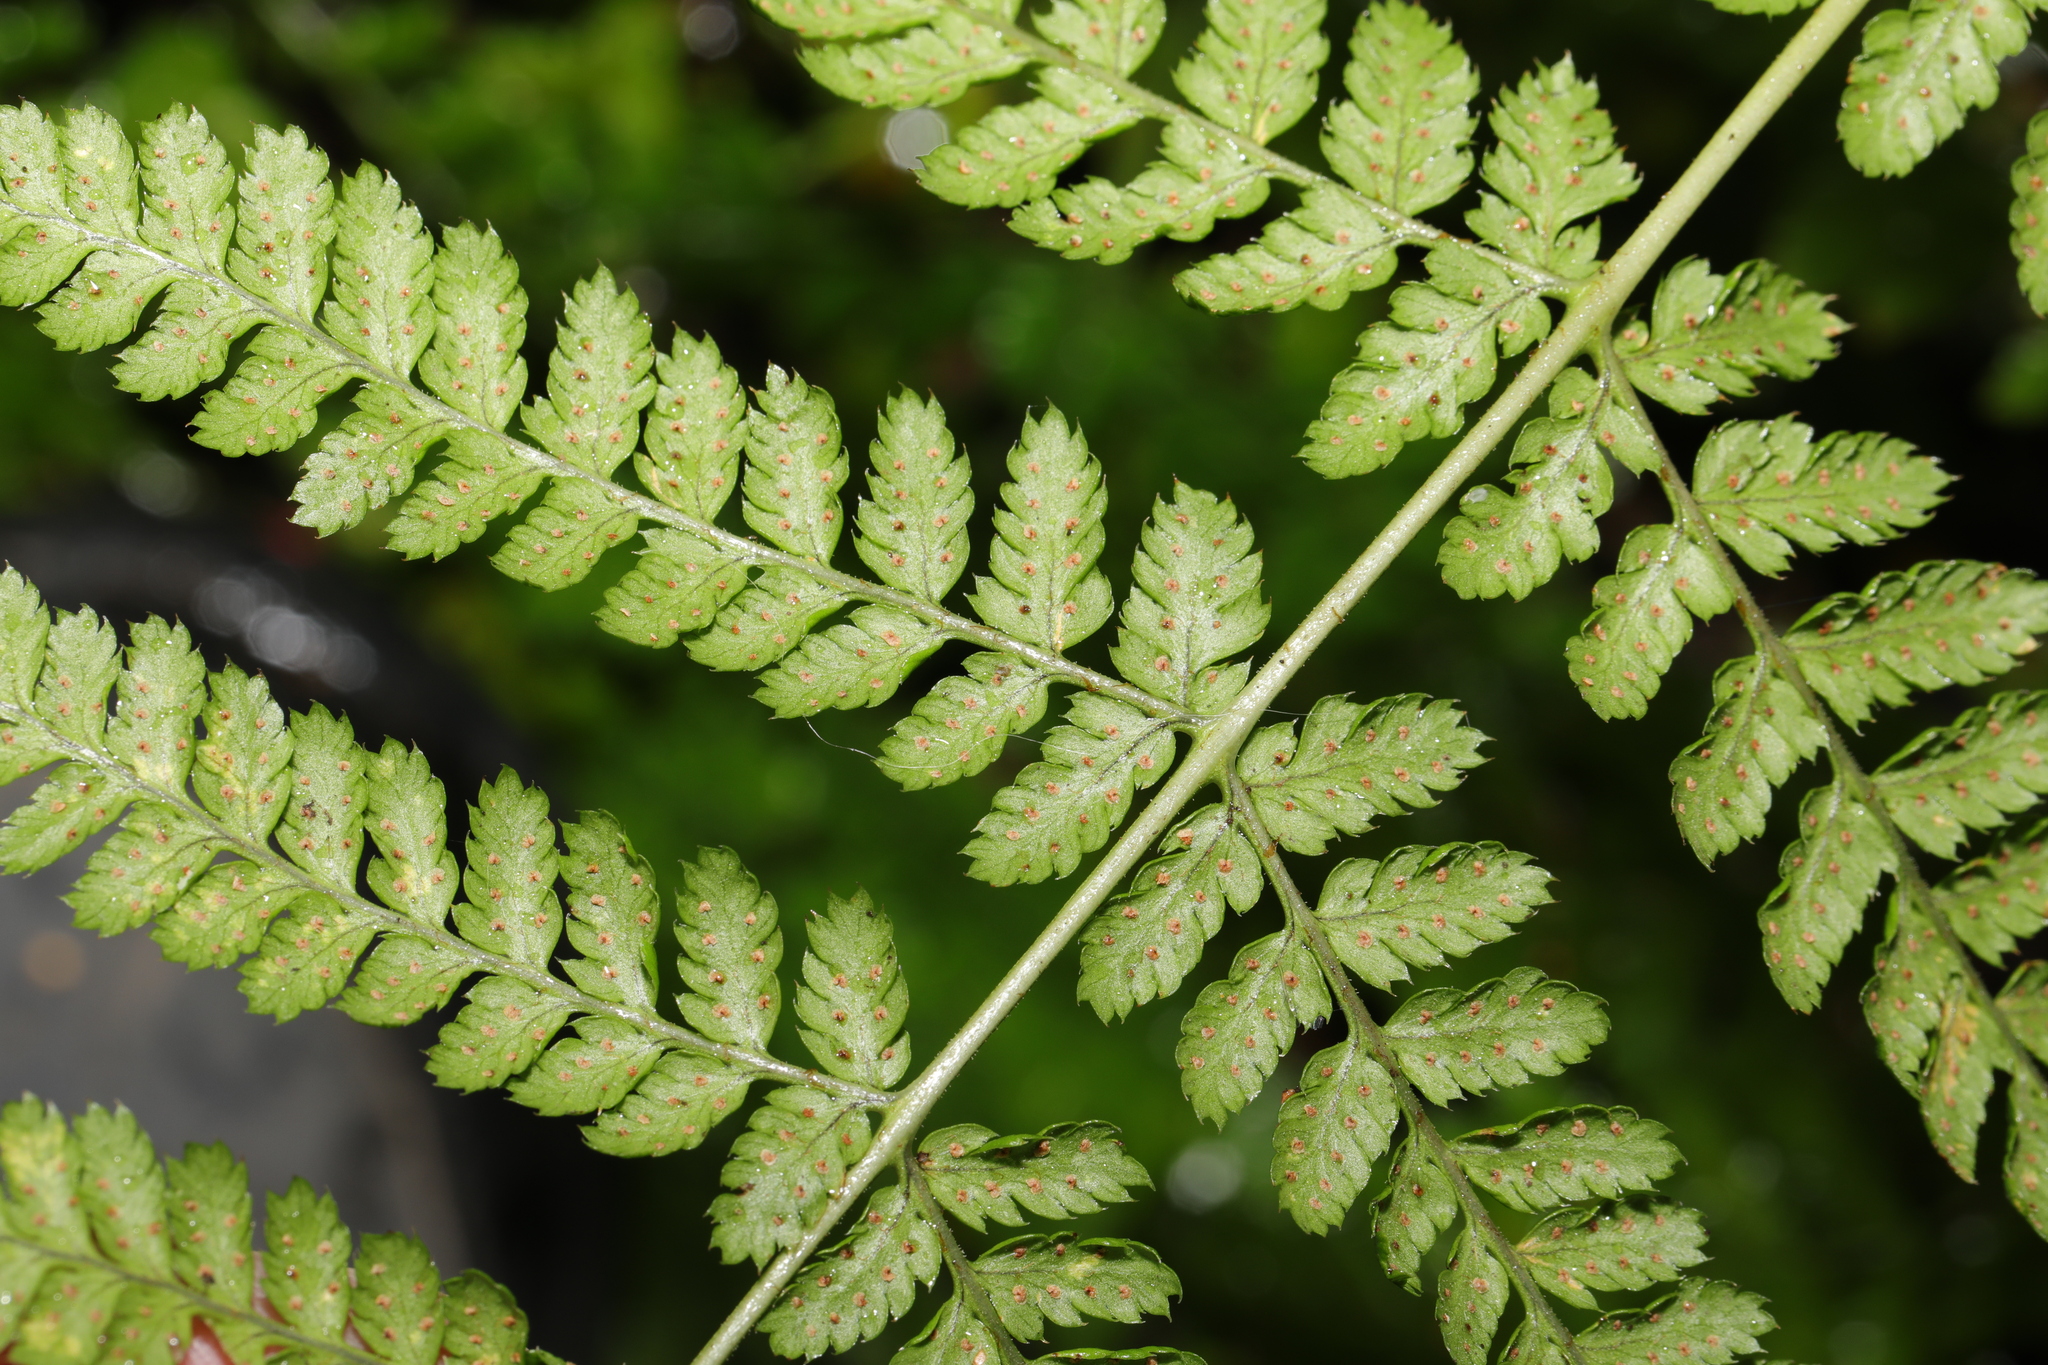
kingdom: Plantae
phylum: Tracheophyta
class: Polypodiopsida
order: Polypodiales
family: Dryopteridaceae
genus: Dryopteris
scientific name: Dryopteris dilatata
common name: Broad buckler-fern
